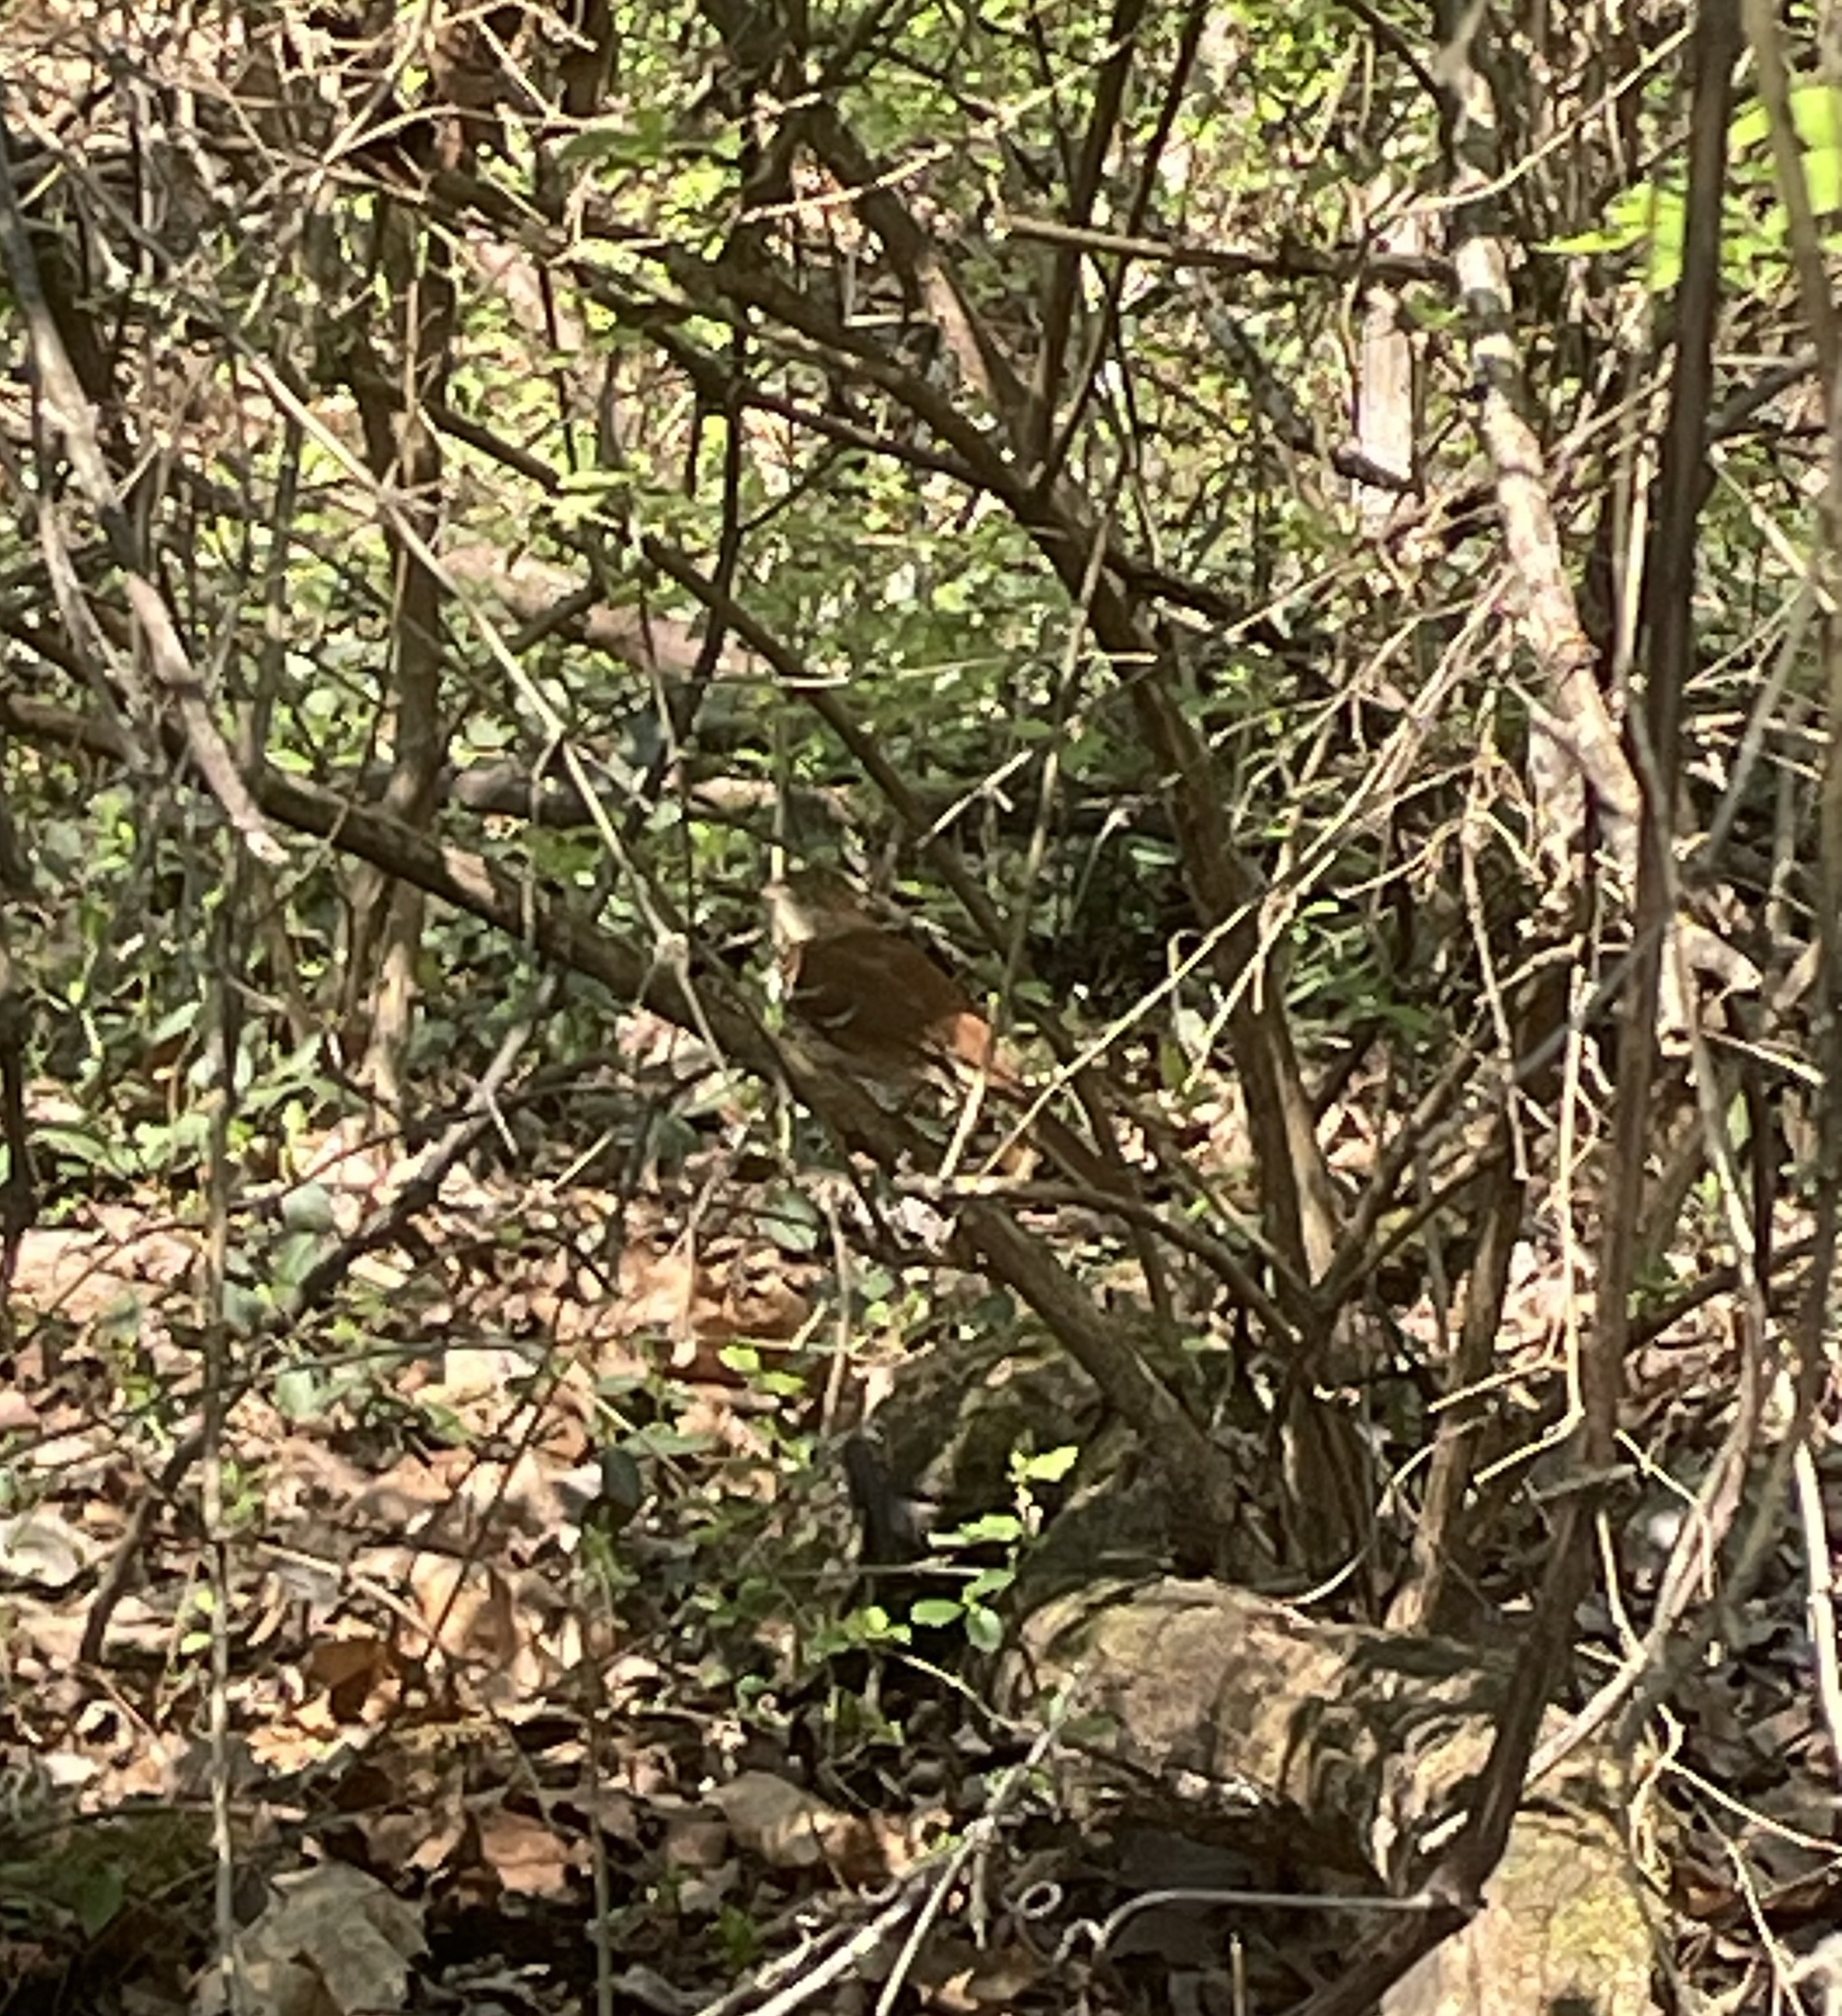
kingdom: Animalia
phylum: Chordata
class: Aves
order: Passeriformes
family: Mimidae
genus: Toxostoma
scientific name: Toxostoma rufum
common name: Brown thrasher
